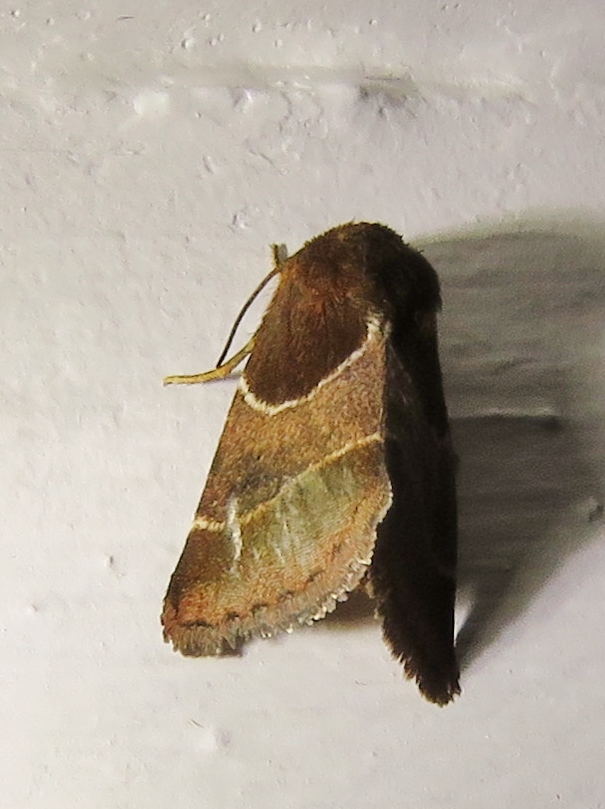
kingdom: Animalia
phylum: Arthropoda
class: Insecta
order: Lepidoptera
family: Noctuidae
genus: Schinia
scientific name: Schinia arcigera
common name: Arcigera flower moth
